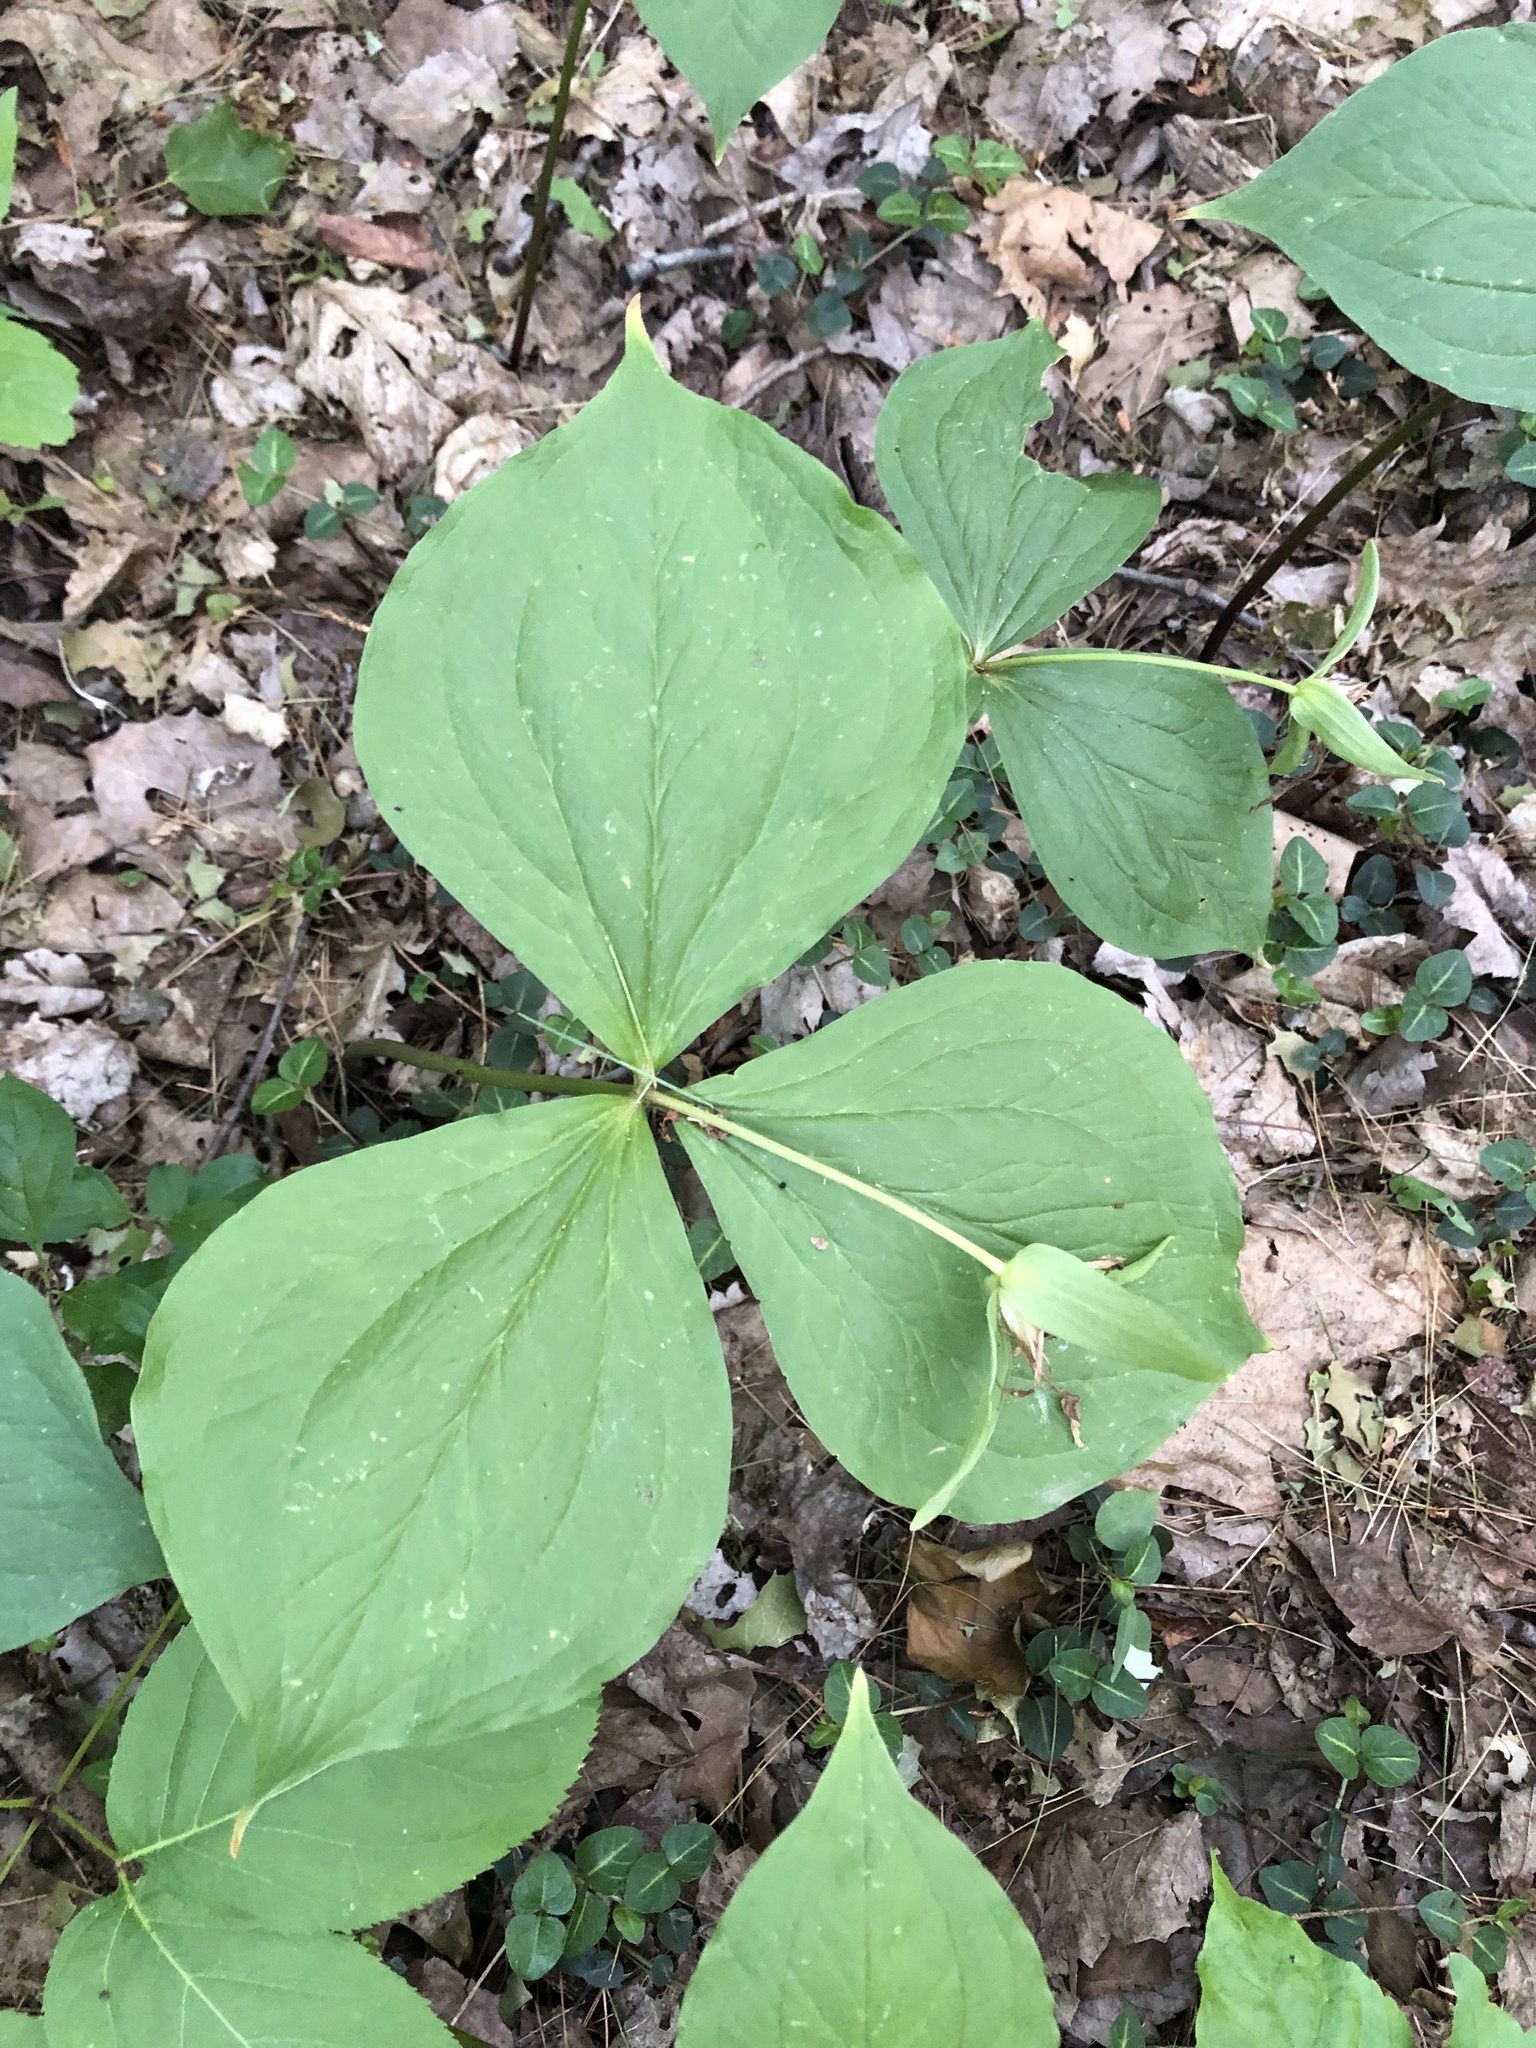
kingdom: Plantae
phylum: Tracheophyta
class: Liliopsida
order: Liliales
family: Melanthiaceae
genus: Trillium
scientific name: Trillium grandiflorum
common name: Great white trillium
